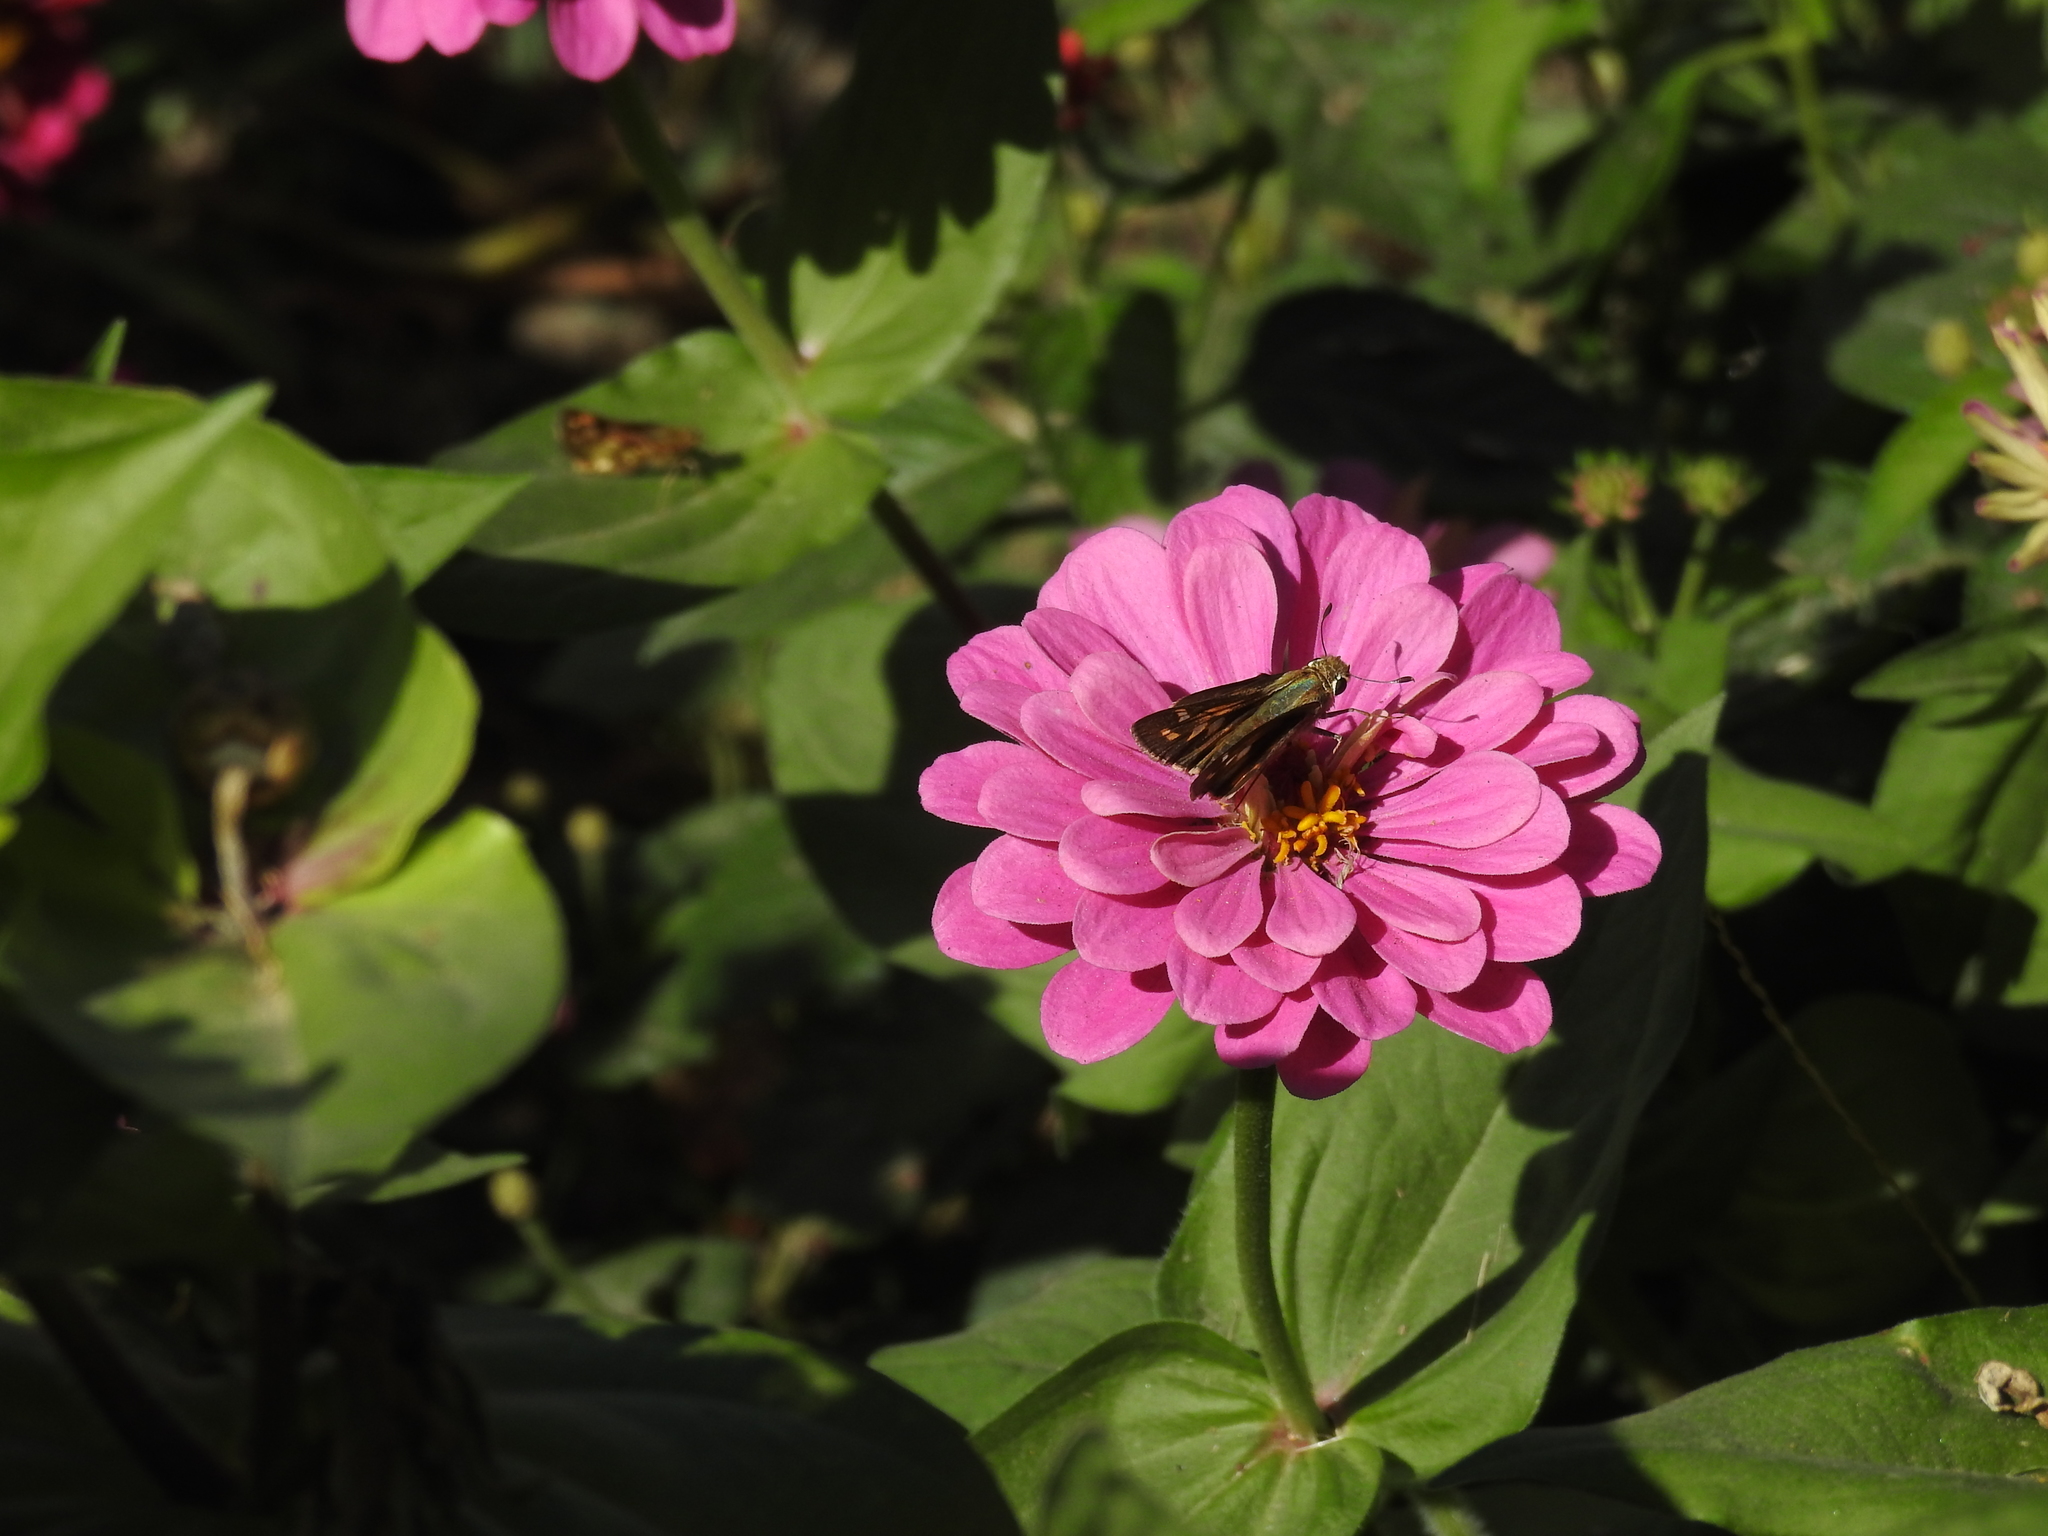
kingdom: Animalia
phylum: Arthropoda
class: Insecta
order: Lepidoptera
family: Hesperiidae
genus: Atalopedes
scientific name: Atalopedes
